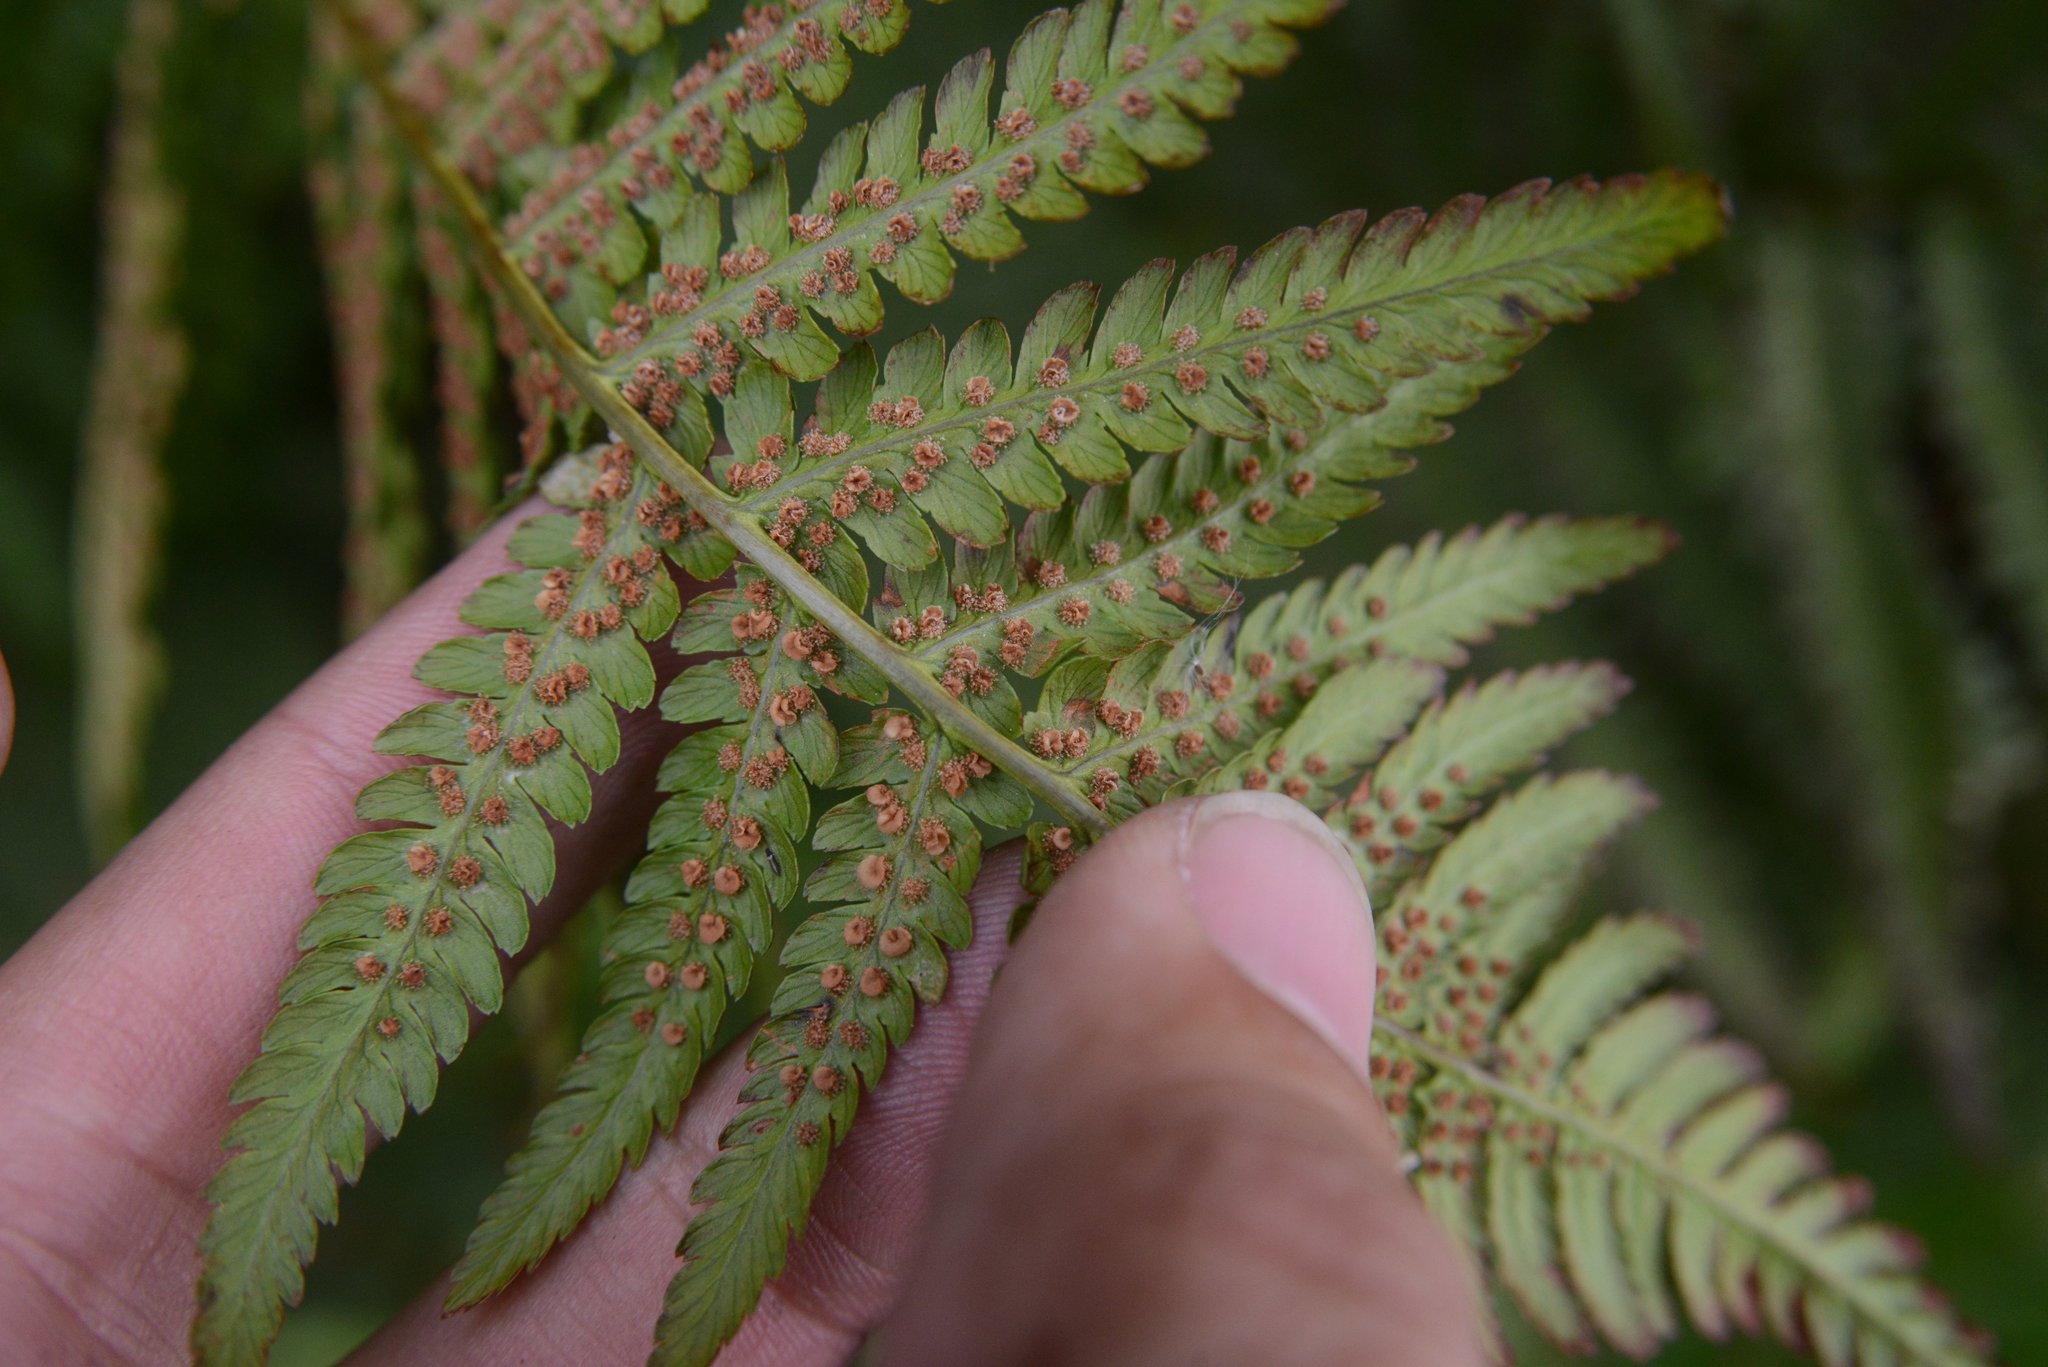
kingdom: Plantae
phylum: Tracheophyta
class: Polypodiopsida
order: Polypodiales
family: Dryopteridaceae
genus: Dryopteris
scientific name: Dryopteris filix-mas
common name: Male fern
